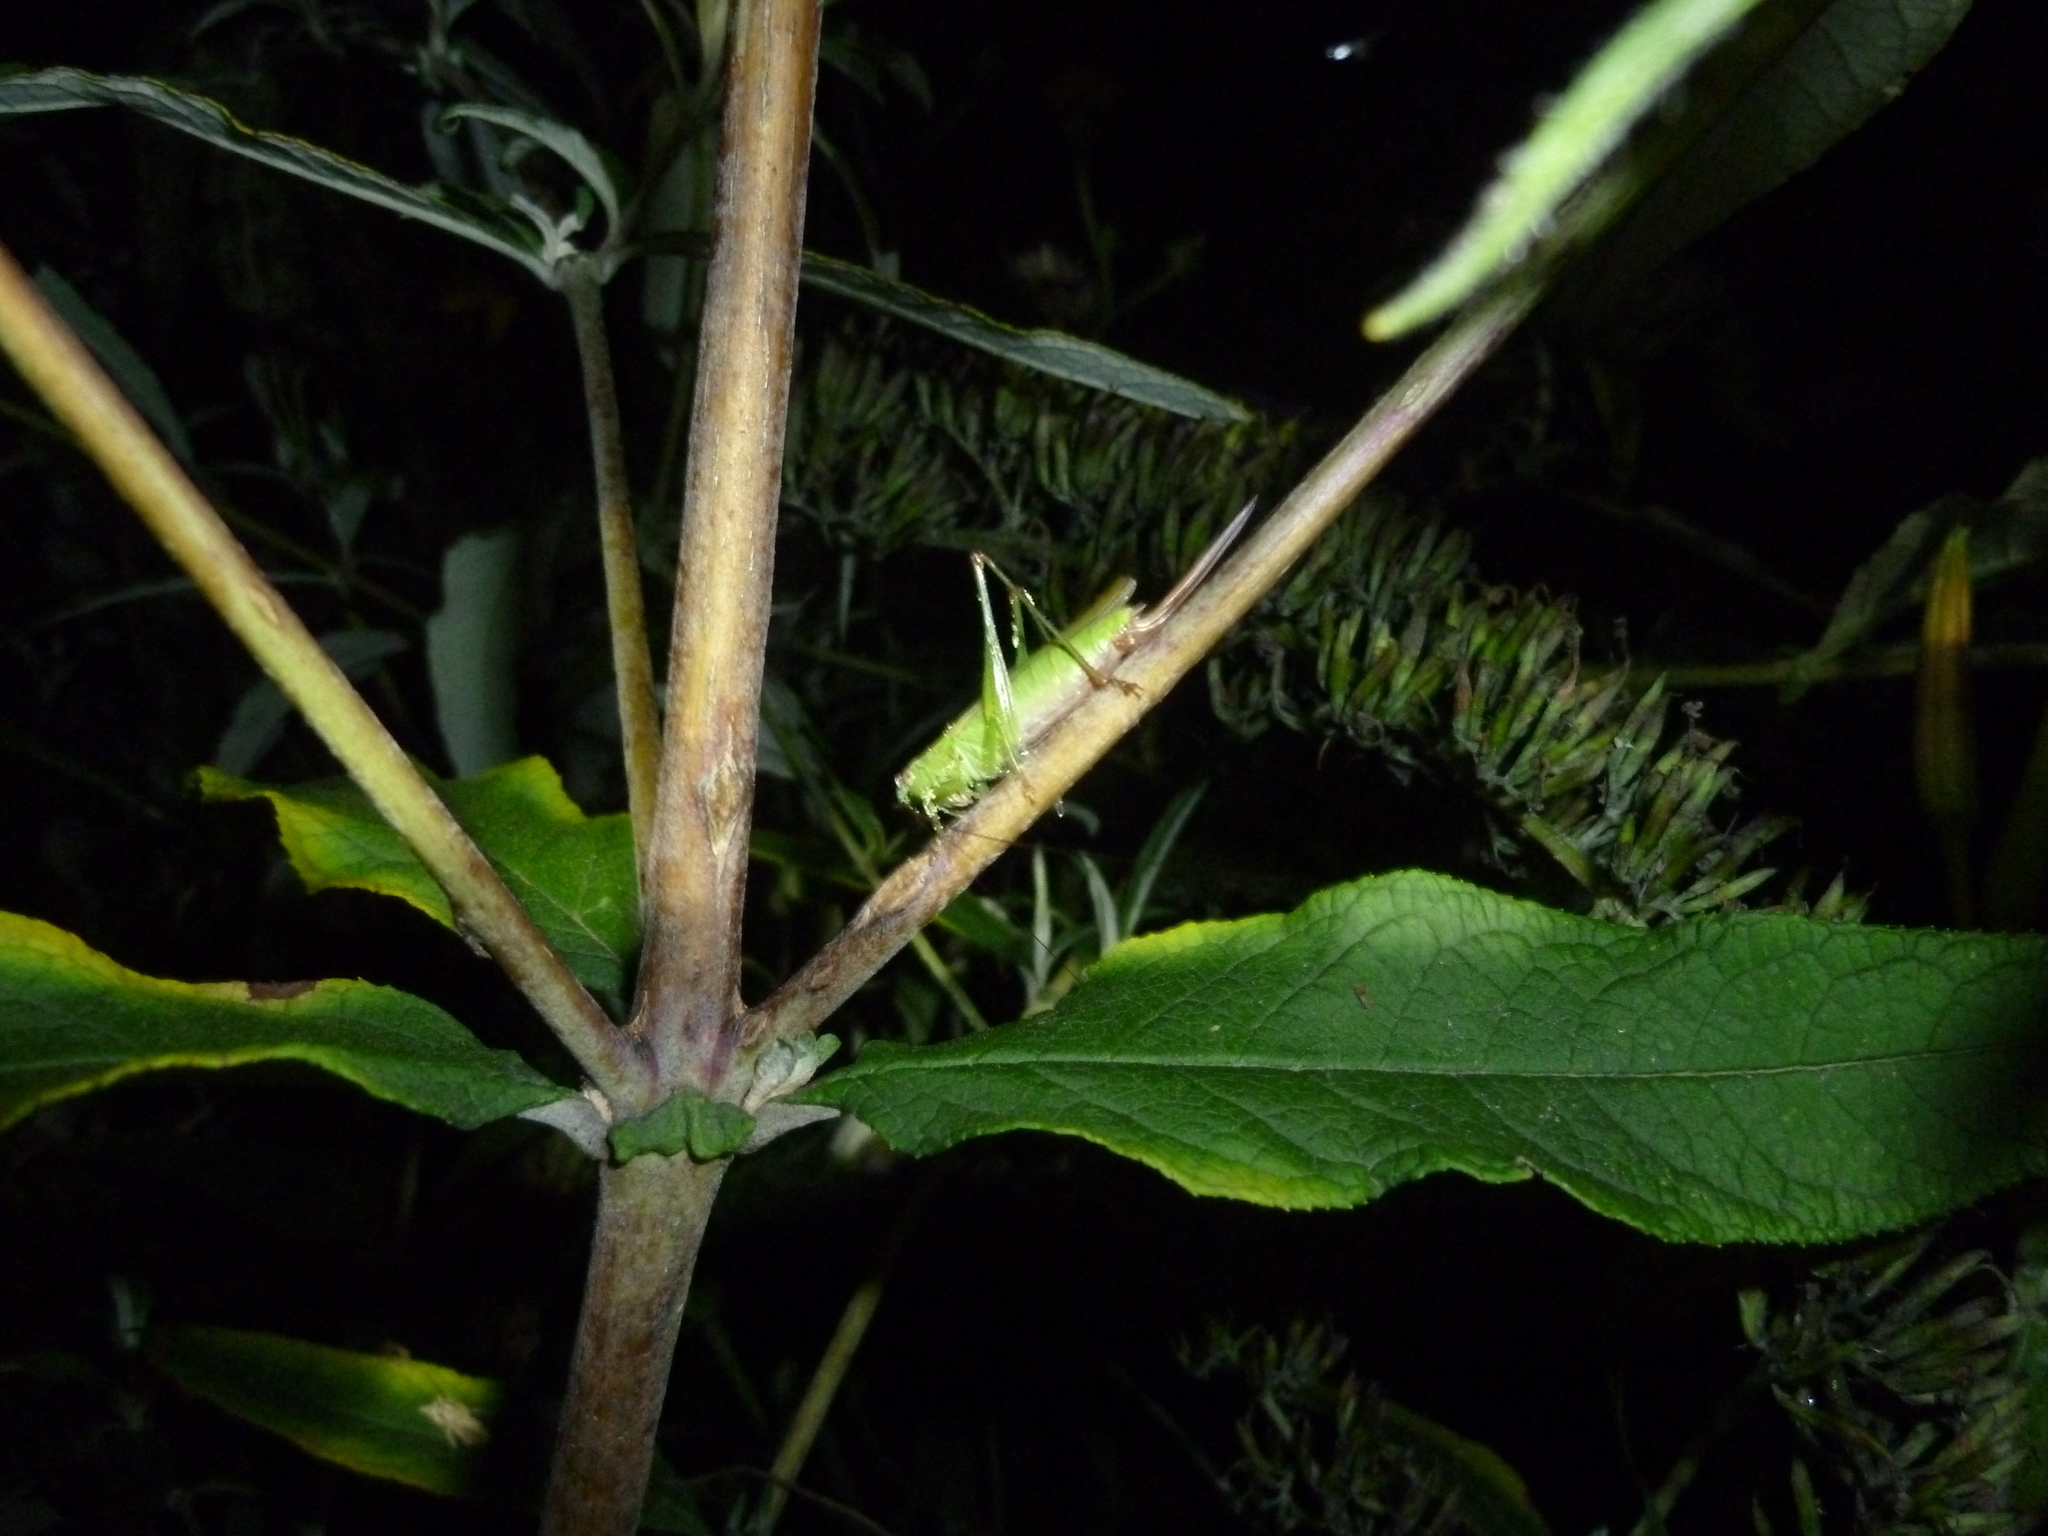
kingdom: Animalia
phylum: Arthropoda
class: Insecta
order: Orthoptera
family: Tettigoniidae
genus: Conocephalus
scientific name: Conocephalus fuscus
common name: Long-winged conehead
